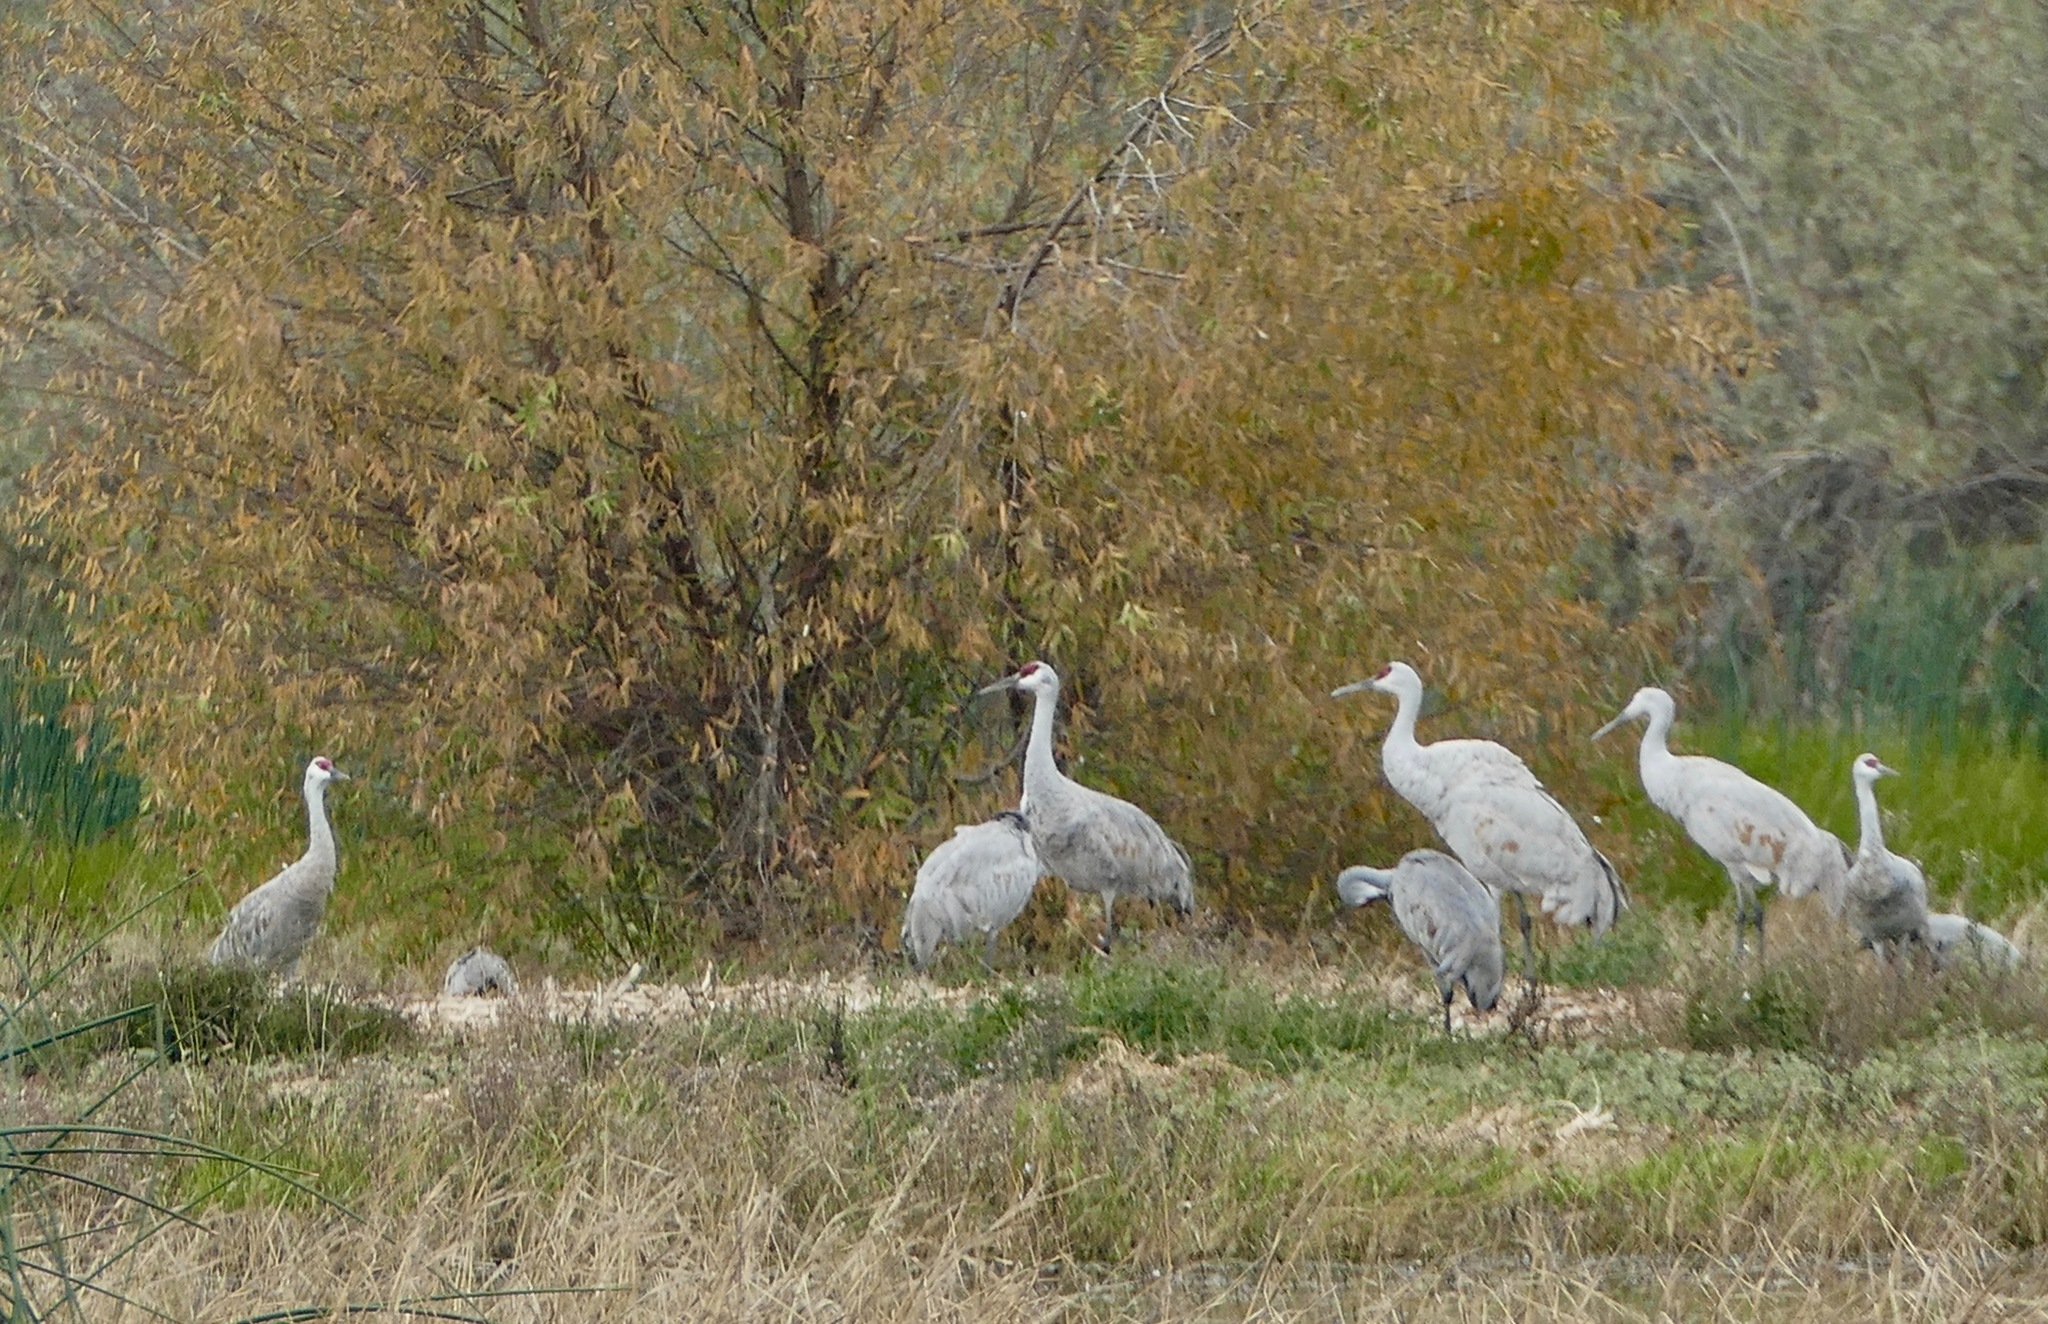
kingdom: Animalia
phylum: Chordata
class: Aves
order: Gruiformes
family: Gruidae
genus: Grus
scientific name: Grus canadensis
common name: Sandhill crane
